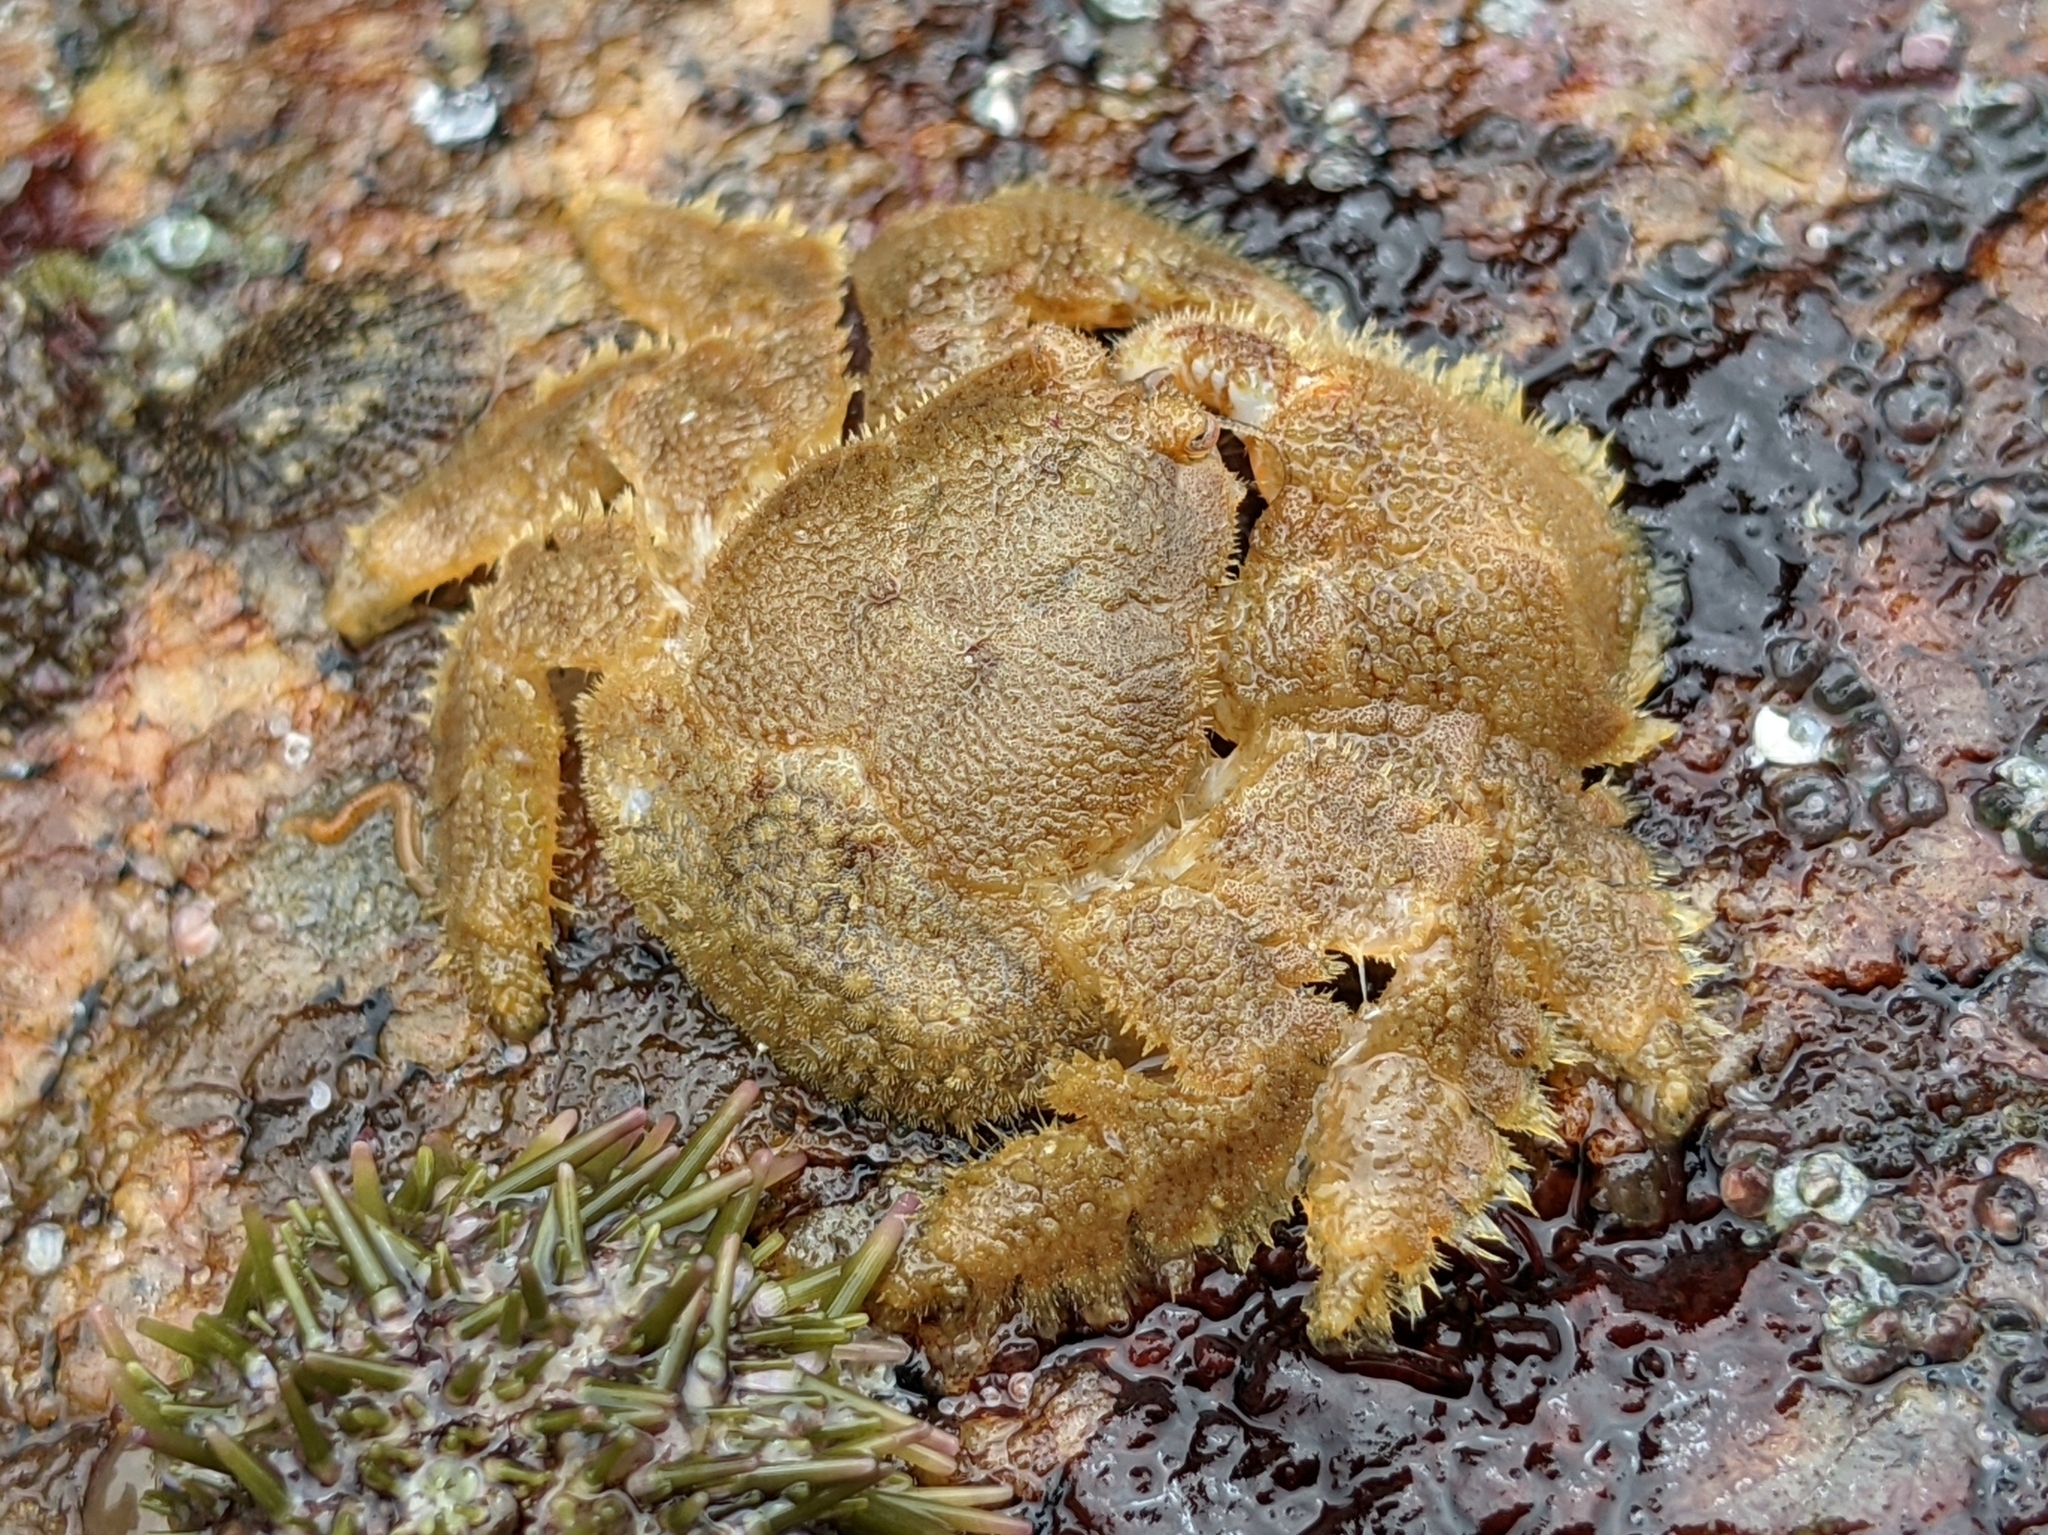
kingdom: Animalia
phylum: Arthropoda
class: Malacostraca
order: Decapoda
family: Hapalogastridae
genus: Hapalogaster
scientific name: Hapalogaster cavicauda
